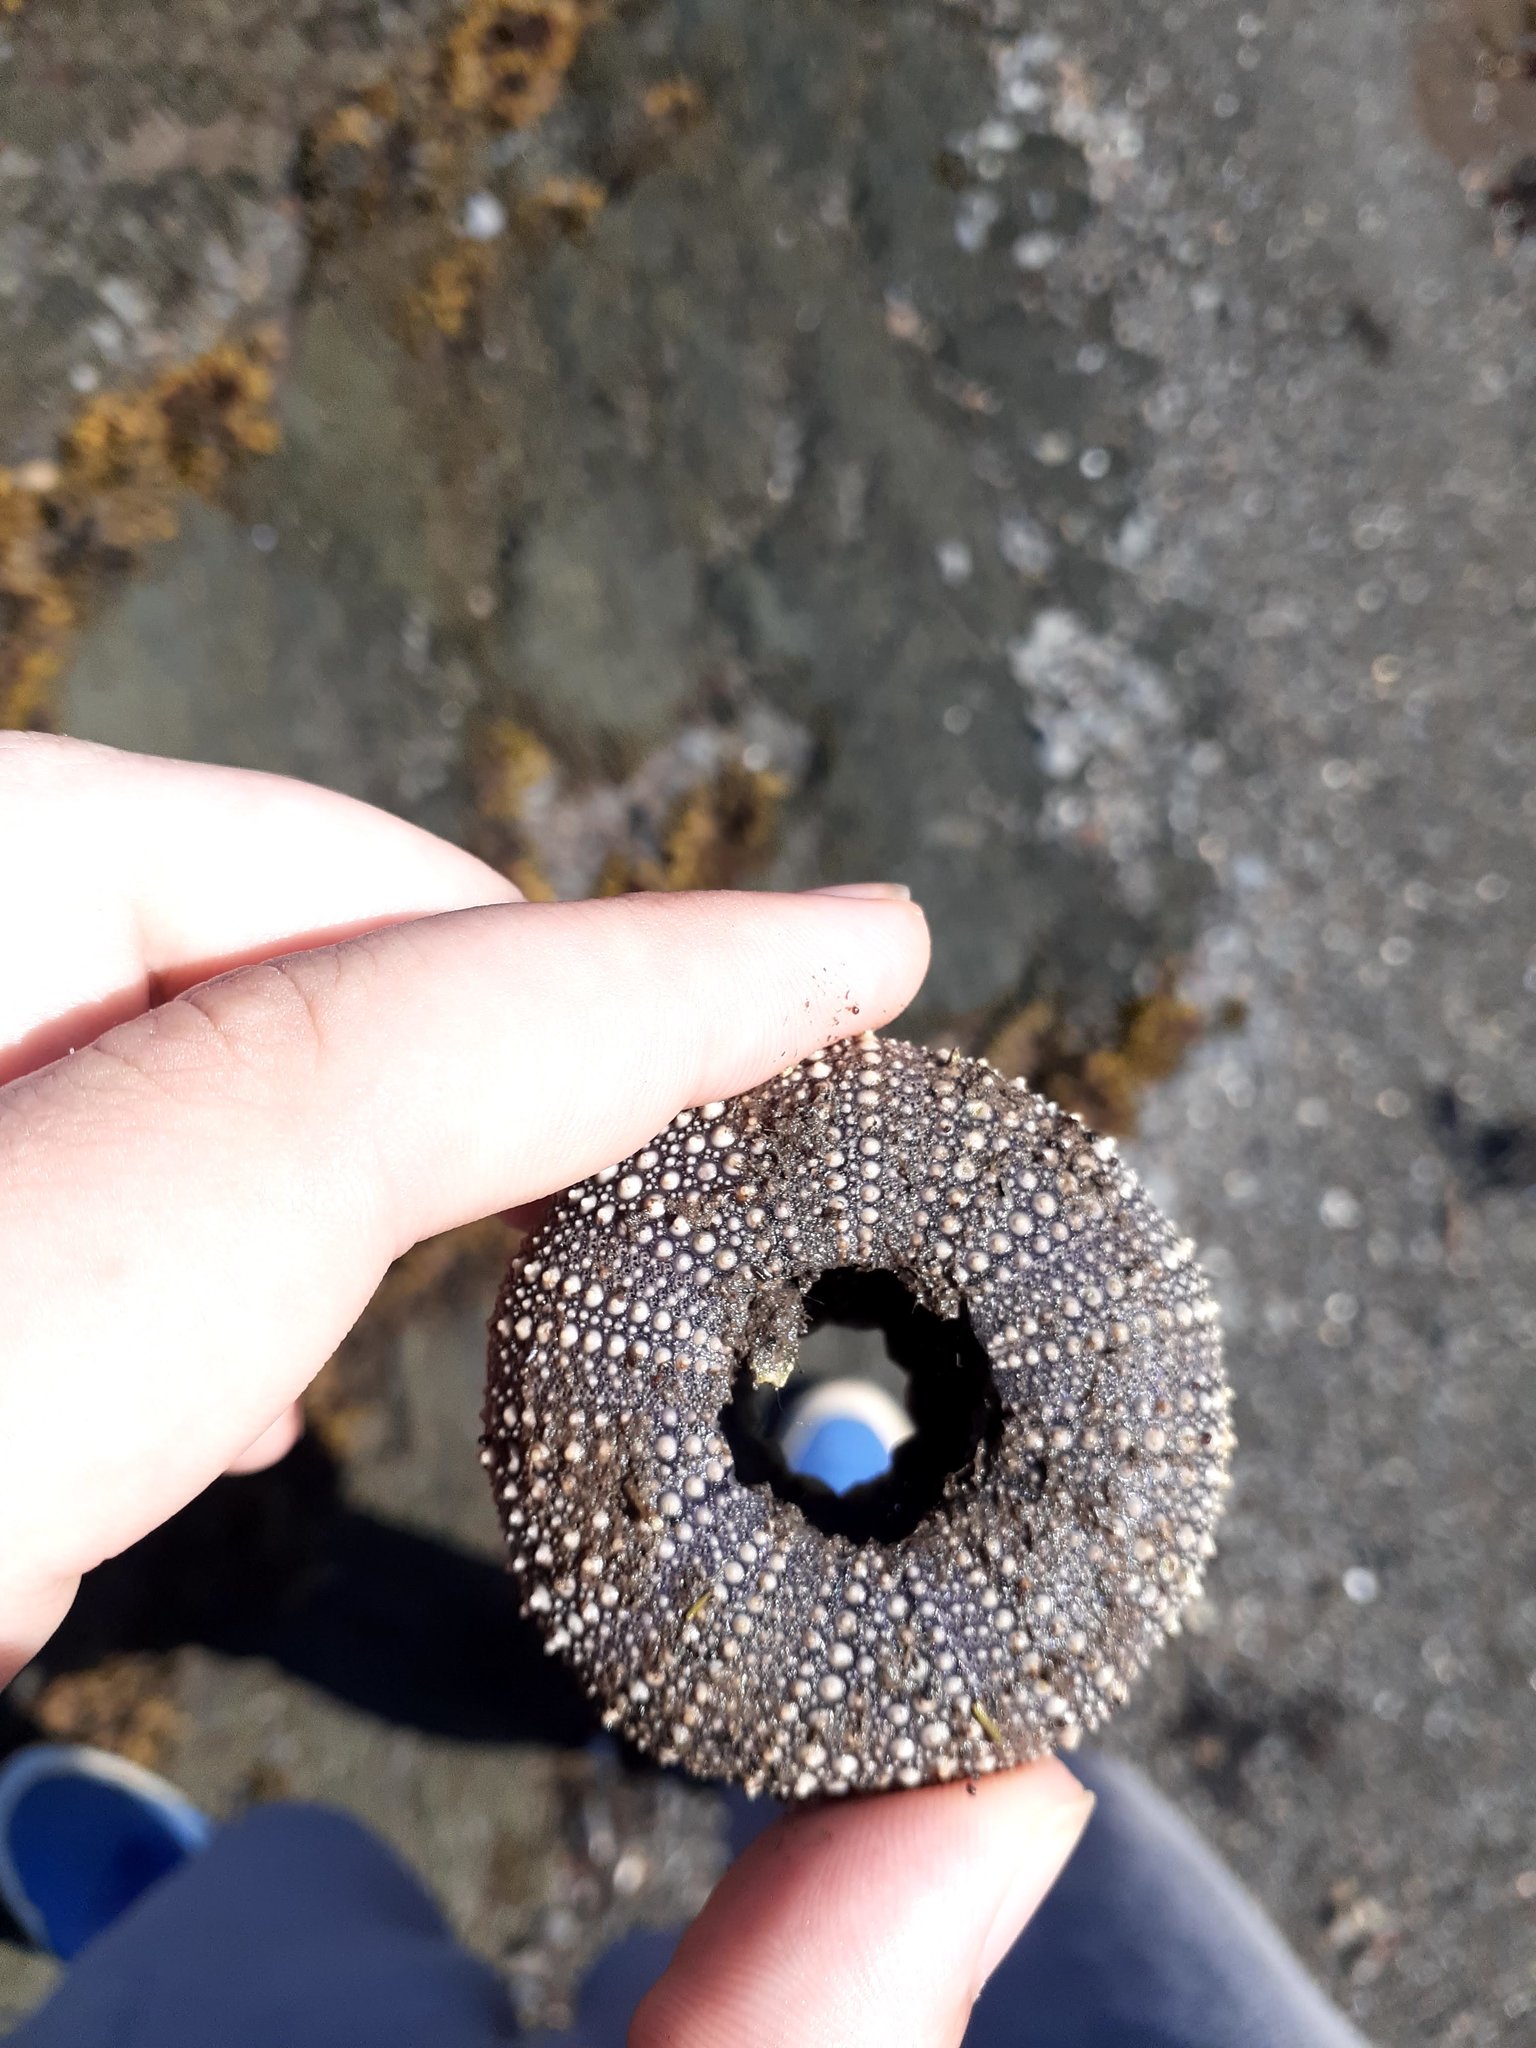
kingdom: Animalia
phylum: Echinodermata
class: Echinoidea
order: Camarodonta
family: Strongylocentrotidae
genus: Strongylocentrotus
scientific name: Strongylocentrotus droebachiensis
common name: Northern sea urchin
